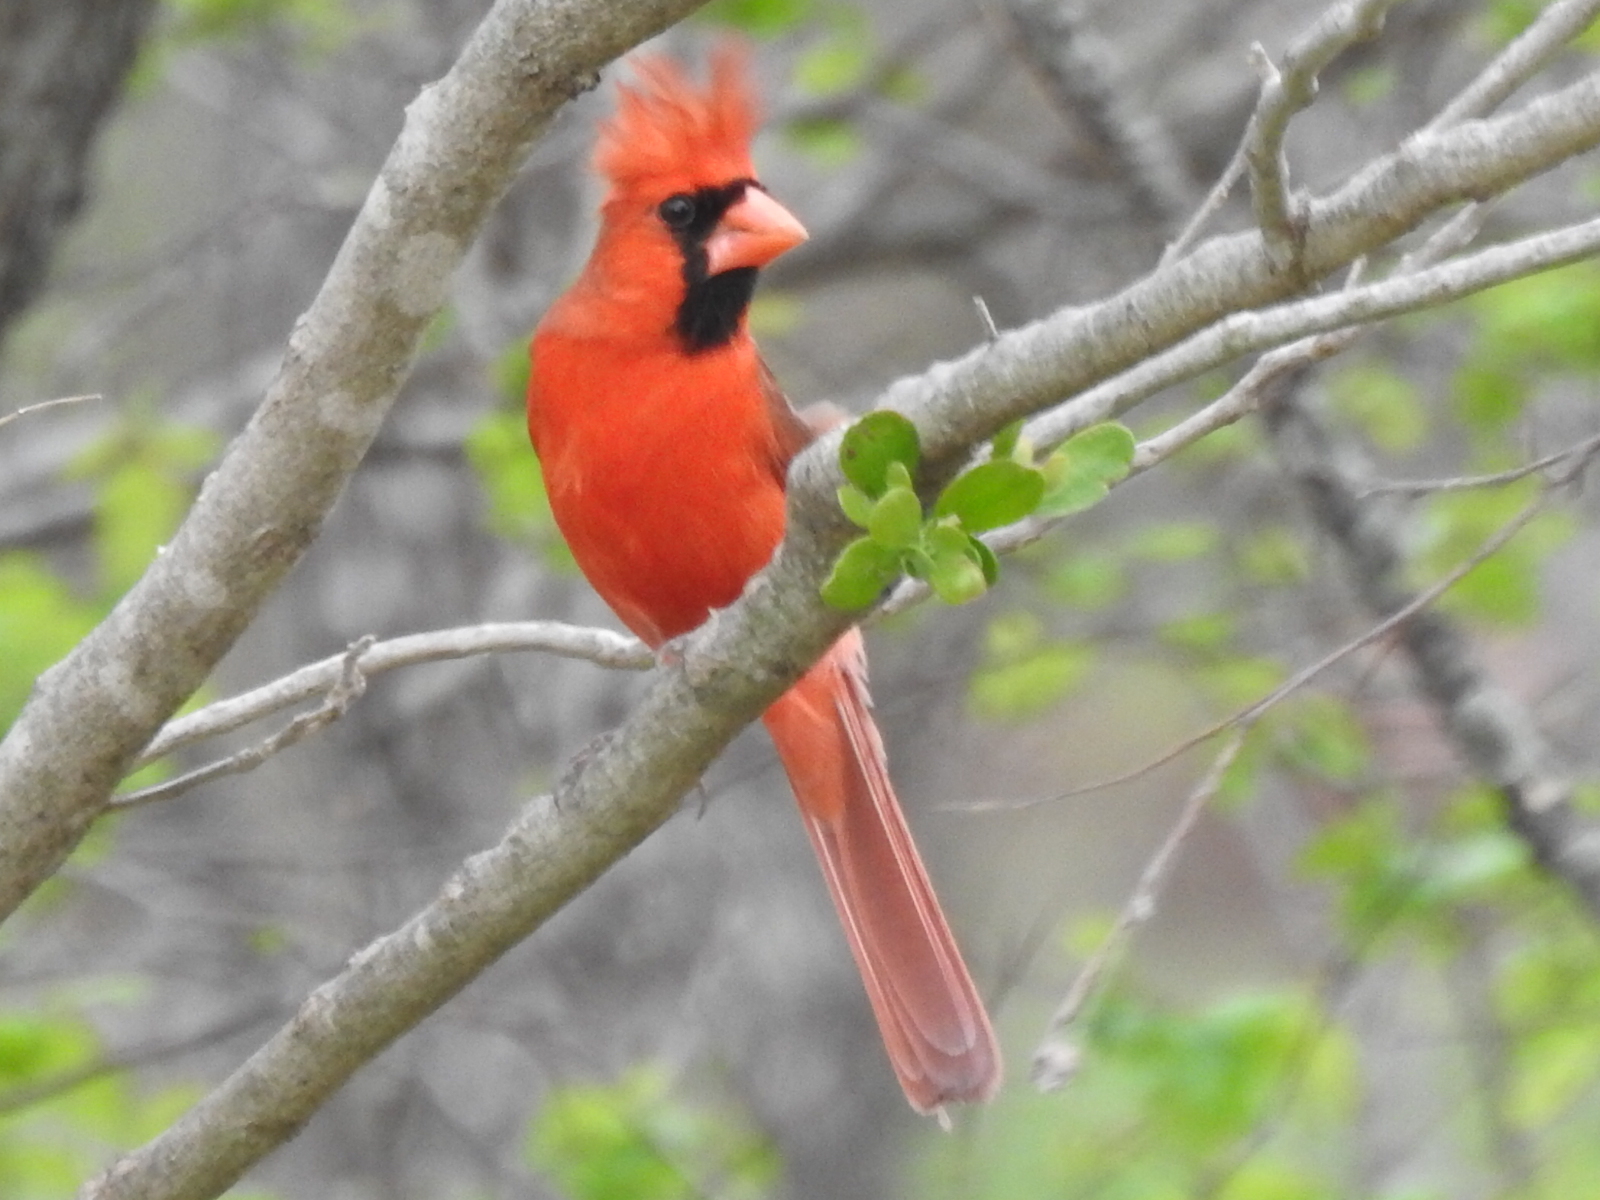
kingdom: Animalia
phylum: Chordata
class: Aves
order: Passeriformes
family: Cardinalidae
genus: Cardinalis
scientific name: Cardinalis cardinalis
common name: Northern cardinal
